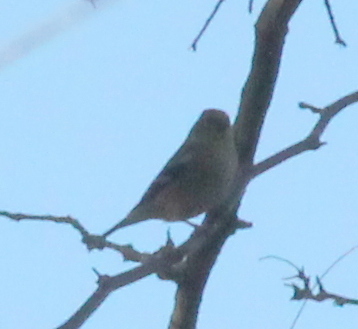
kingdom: Animalia
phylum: Chordata
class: Aves
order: Passeriformes
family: Fringillidae
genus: Spinus
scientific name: Spinus tristis
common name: American goldfinch
